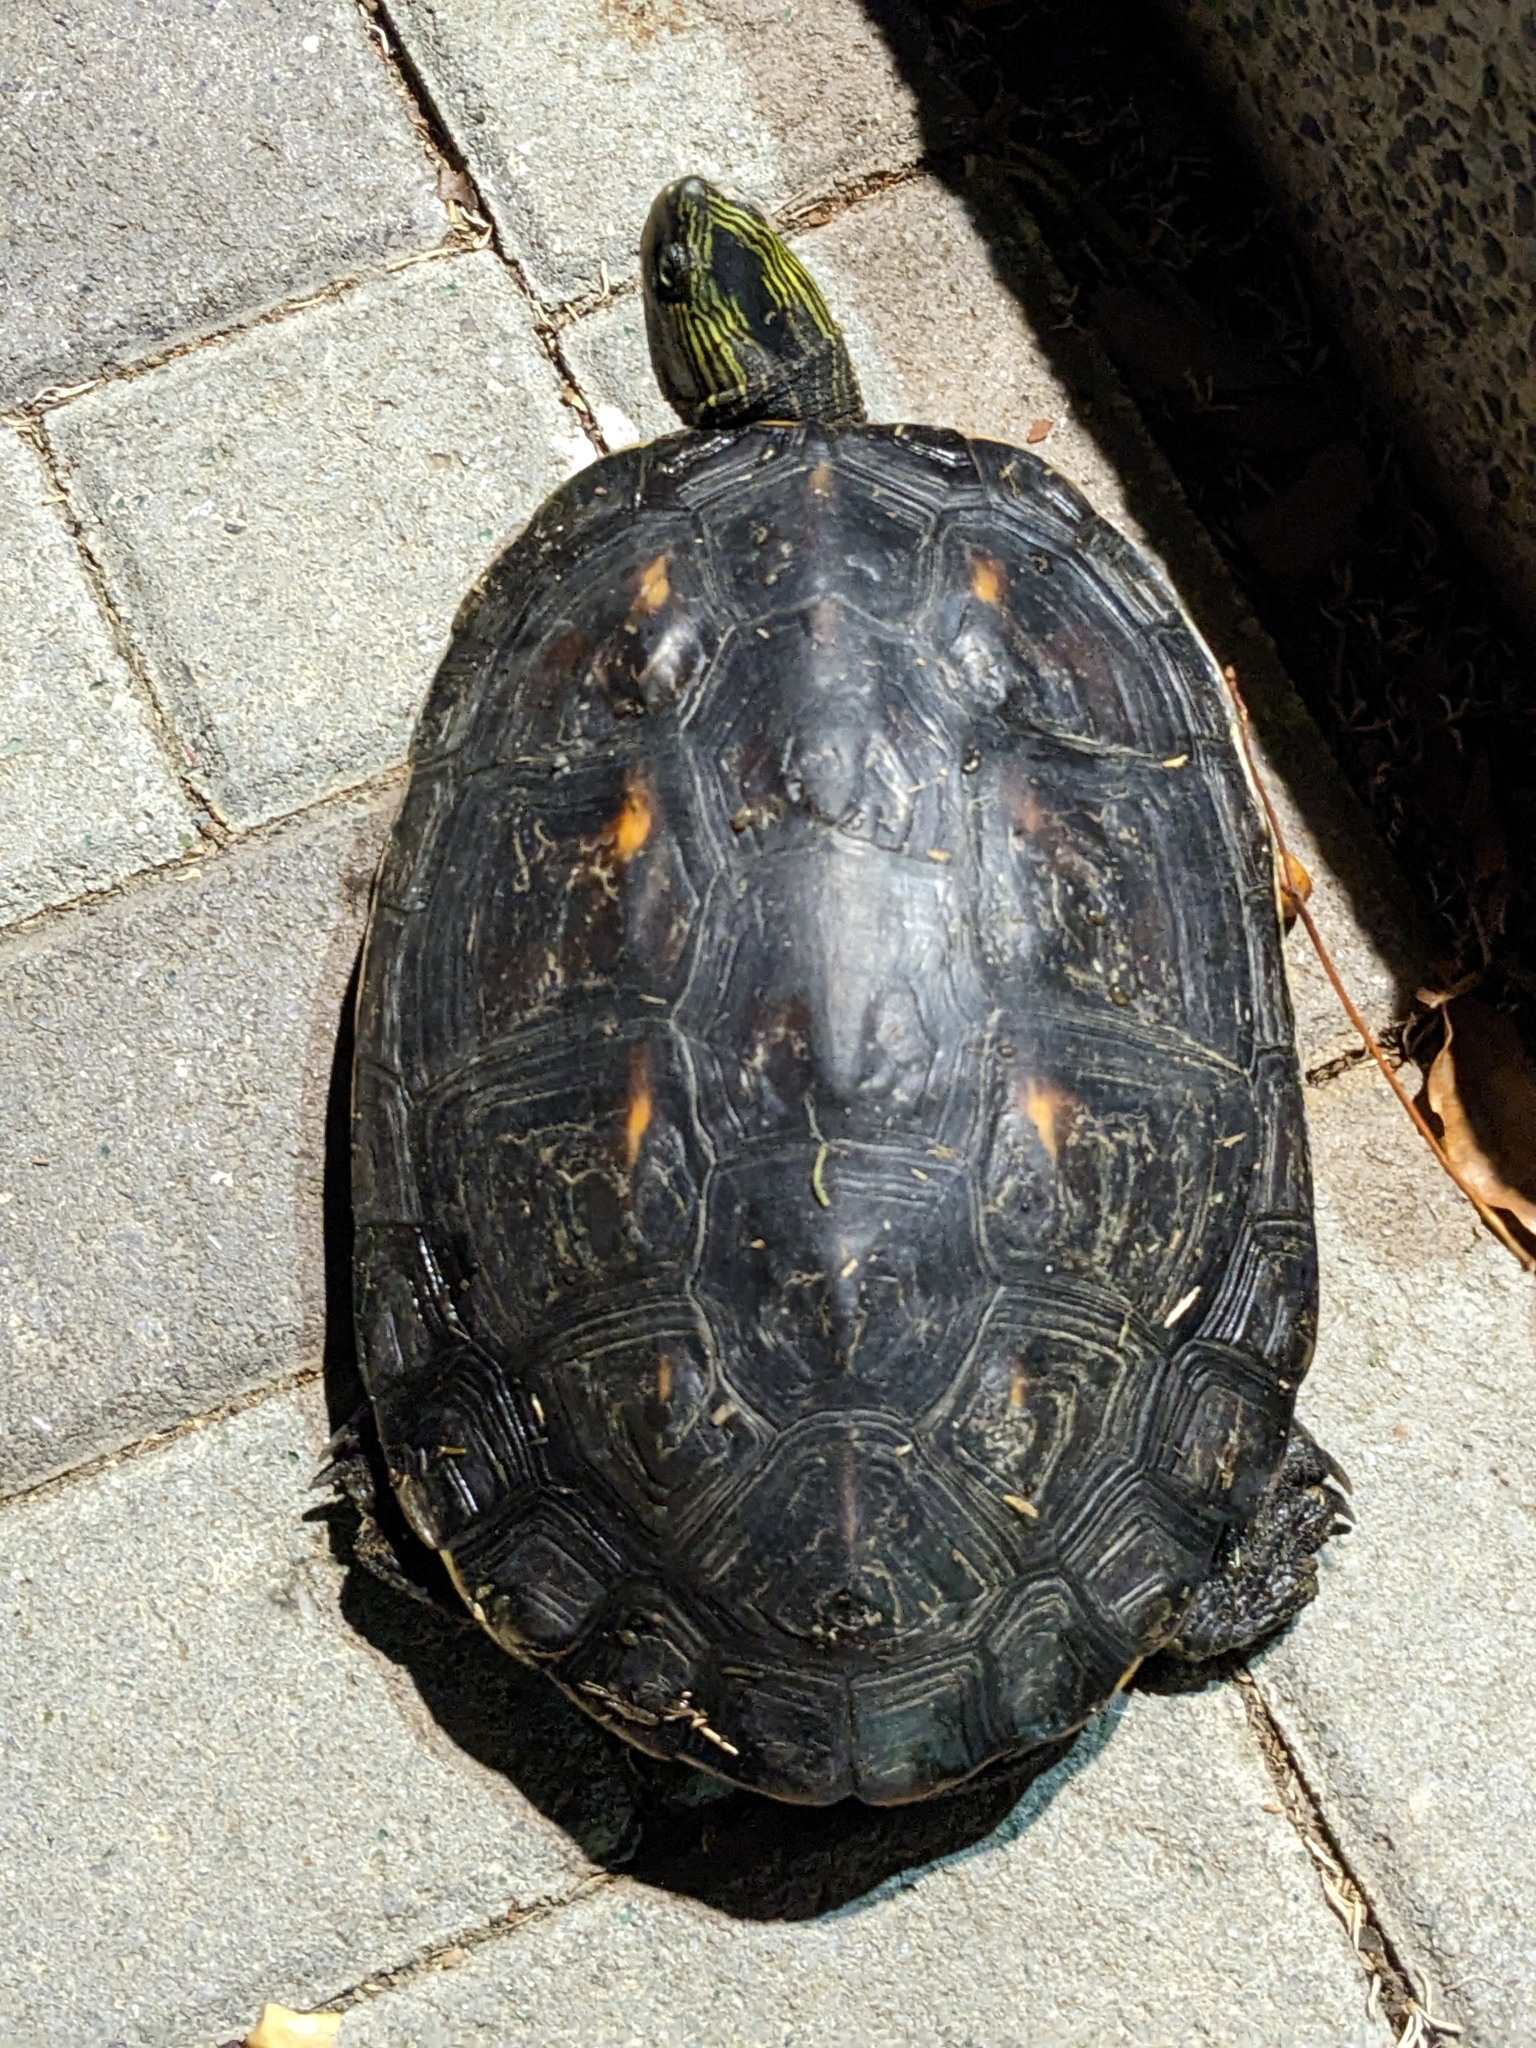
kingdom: Animalia
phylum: Chordata
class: Testudines
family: Geoemydidae
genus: Mauremys
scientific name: Mauremys sinensis
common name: Chinese stripe-necked turtle
